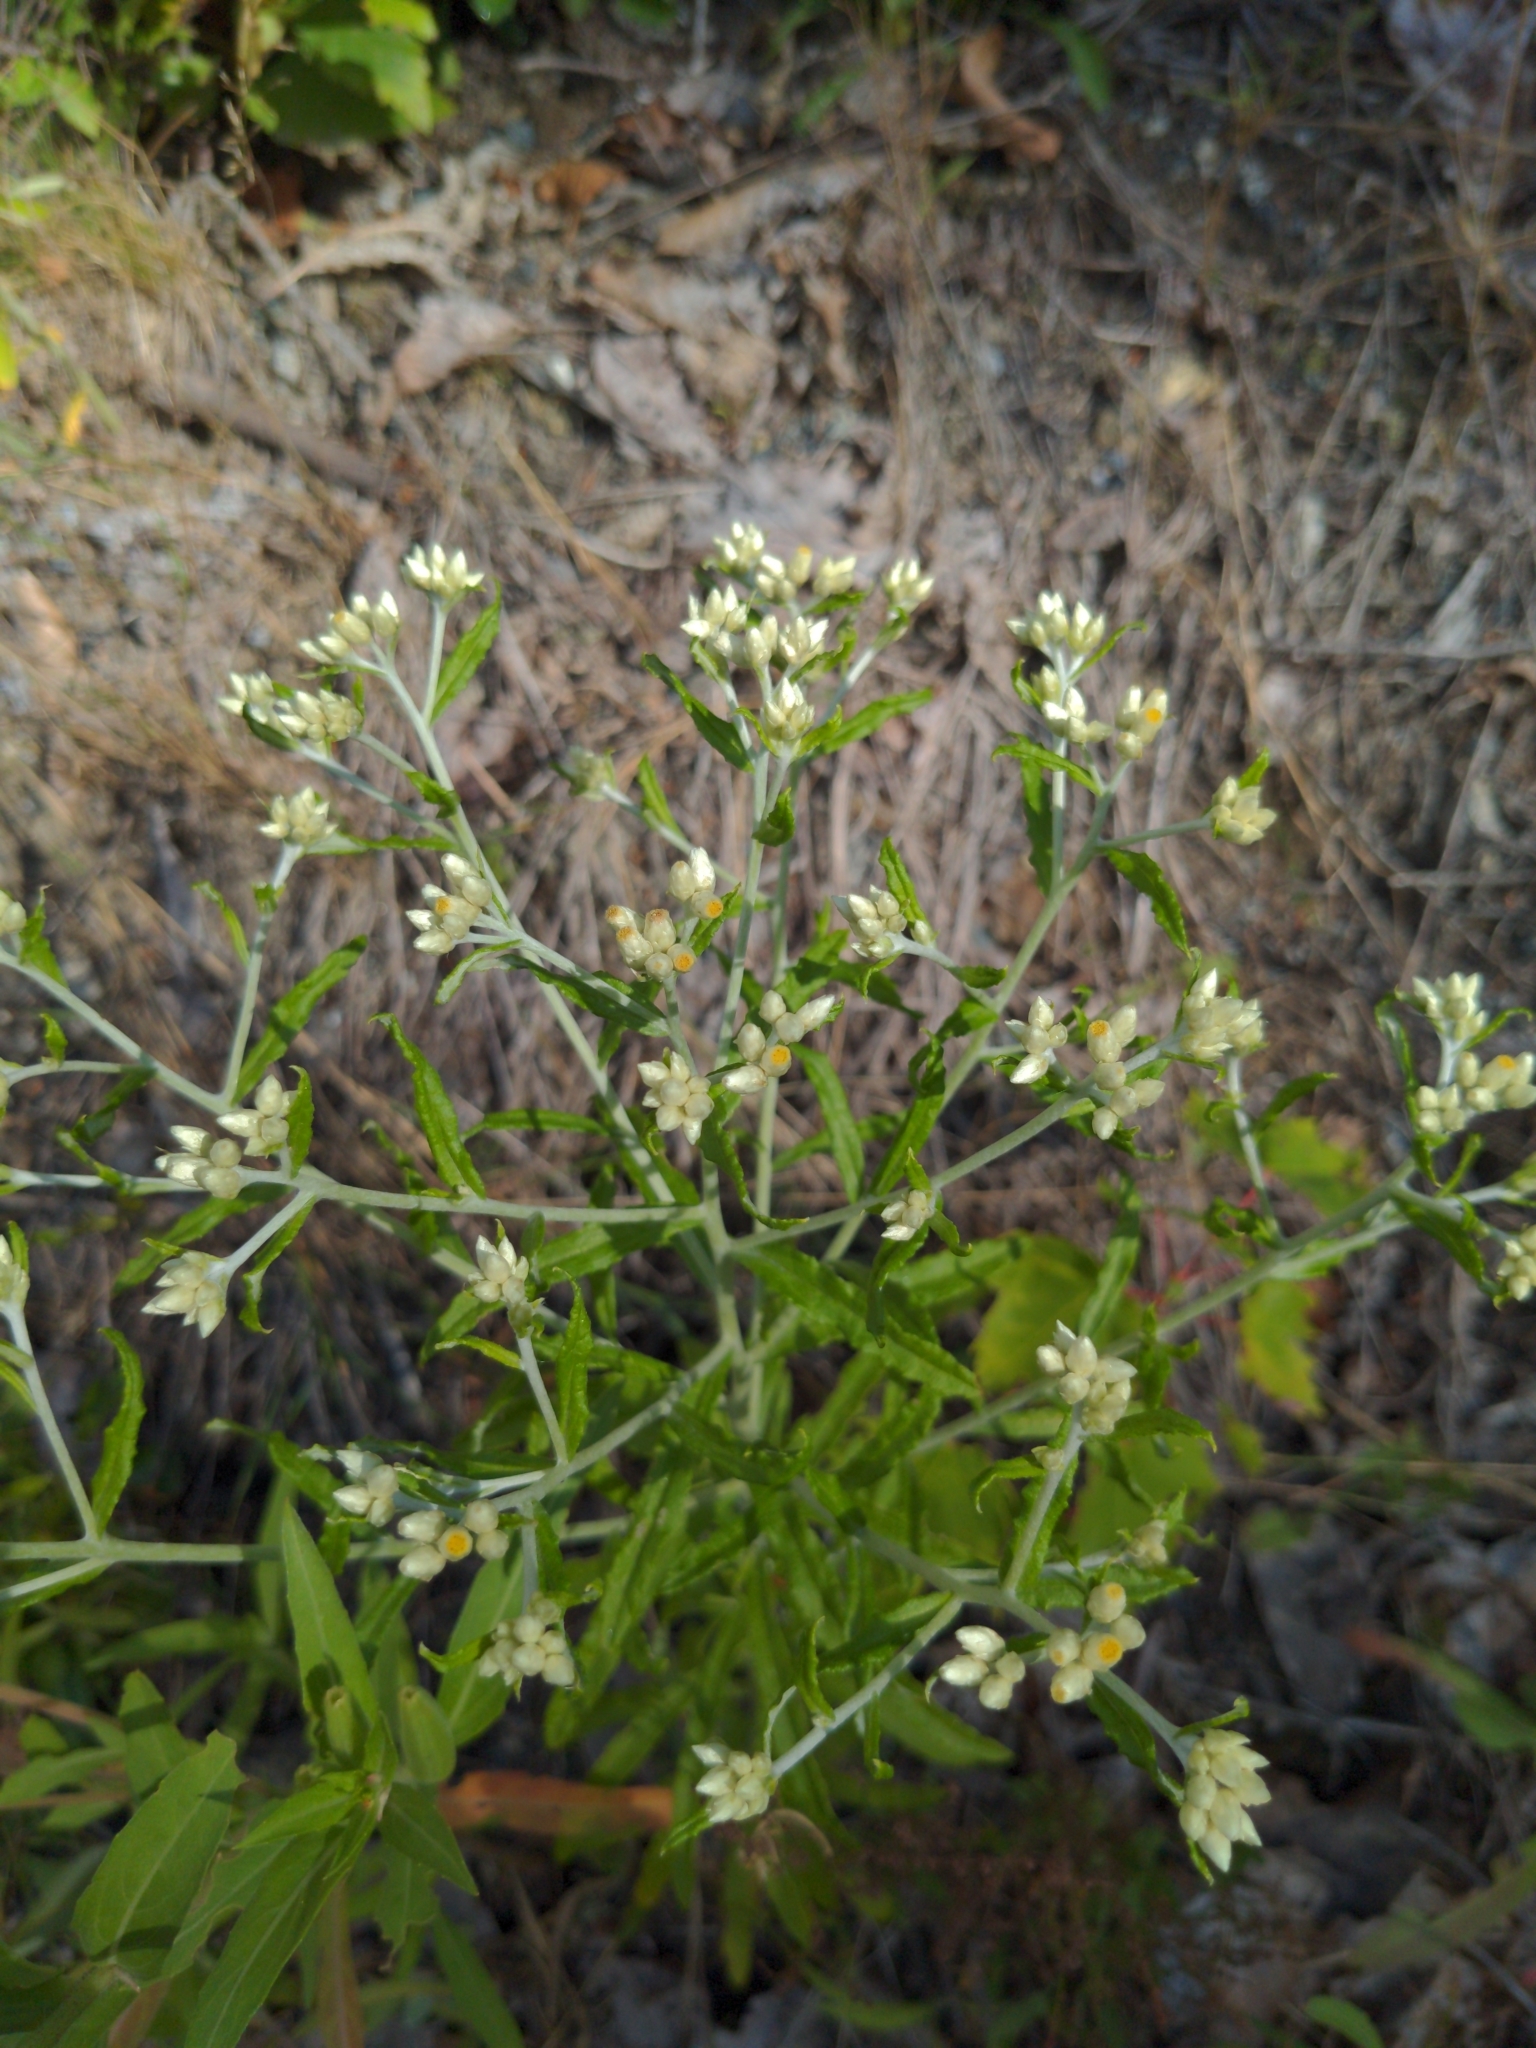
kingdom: Plantae
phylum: Tracheophyta
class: Magnoliopsida
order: Asterales
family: Asteraceae
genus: Pseudognaphalium
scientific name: Pseudognaphalium obtusifolium
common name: Eastern rabbit-tobacco
